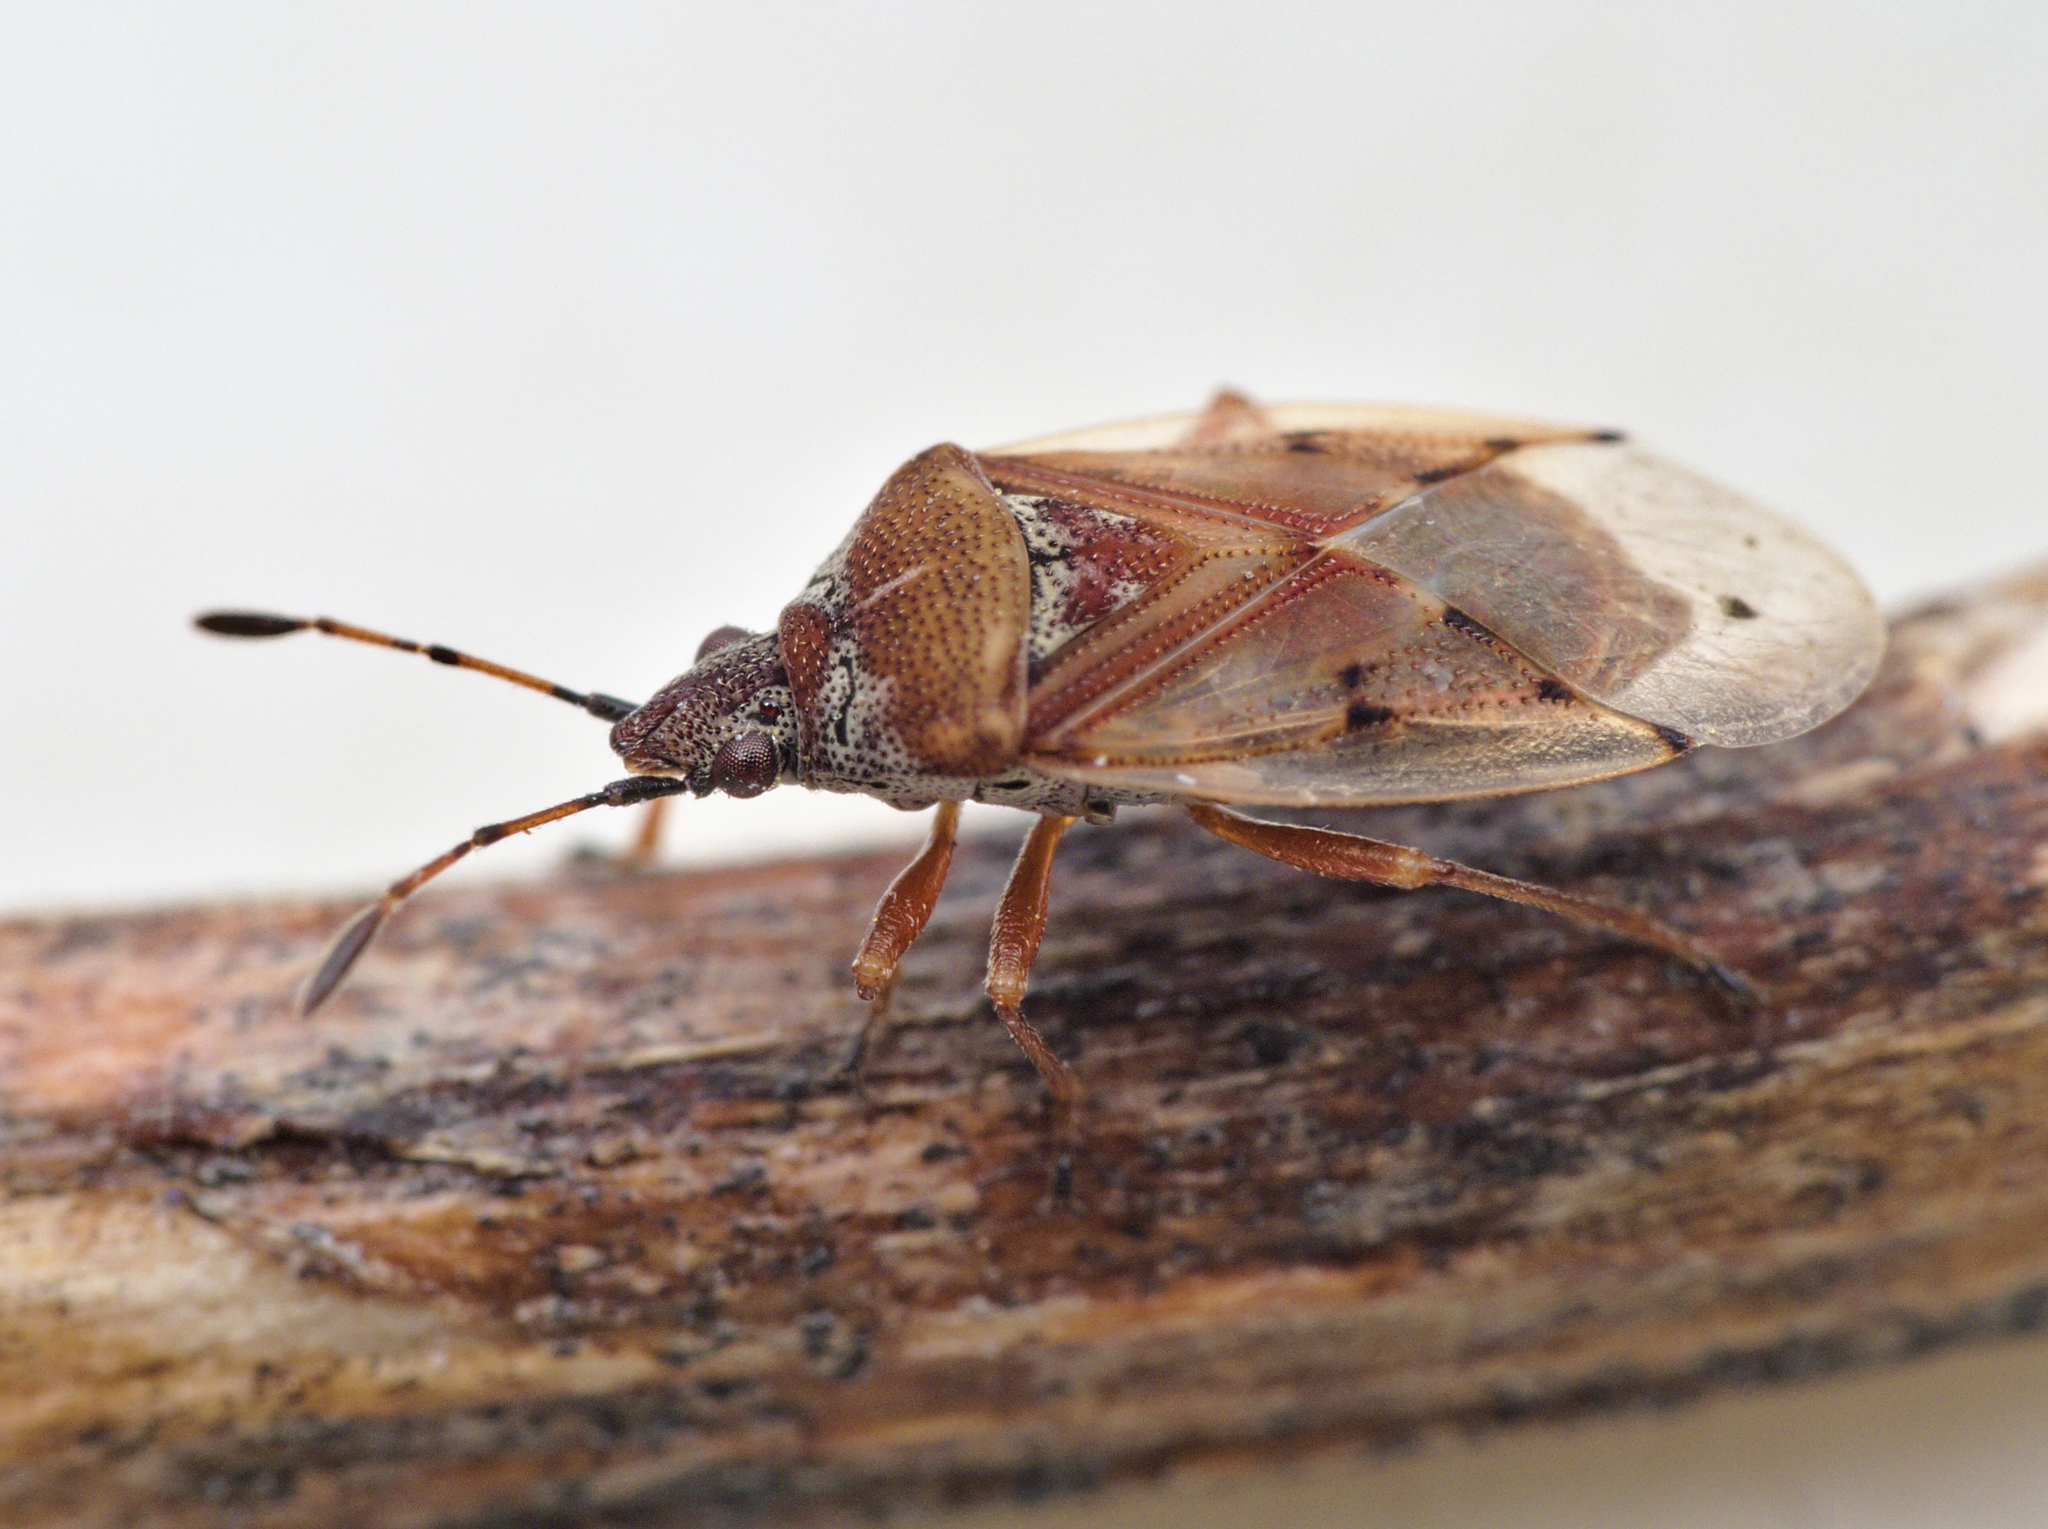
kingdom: Animalia
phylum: Arthropoda
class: Insecta
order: Hemiptera
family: Lygaeidae
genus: Kleidocerys
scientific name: Kleidocerys resedae
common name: Birch catkin bug
